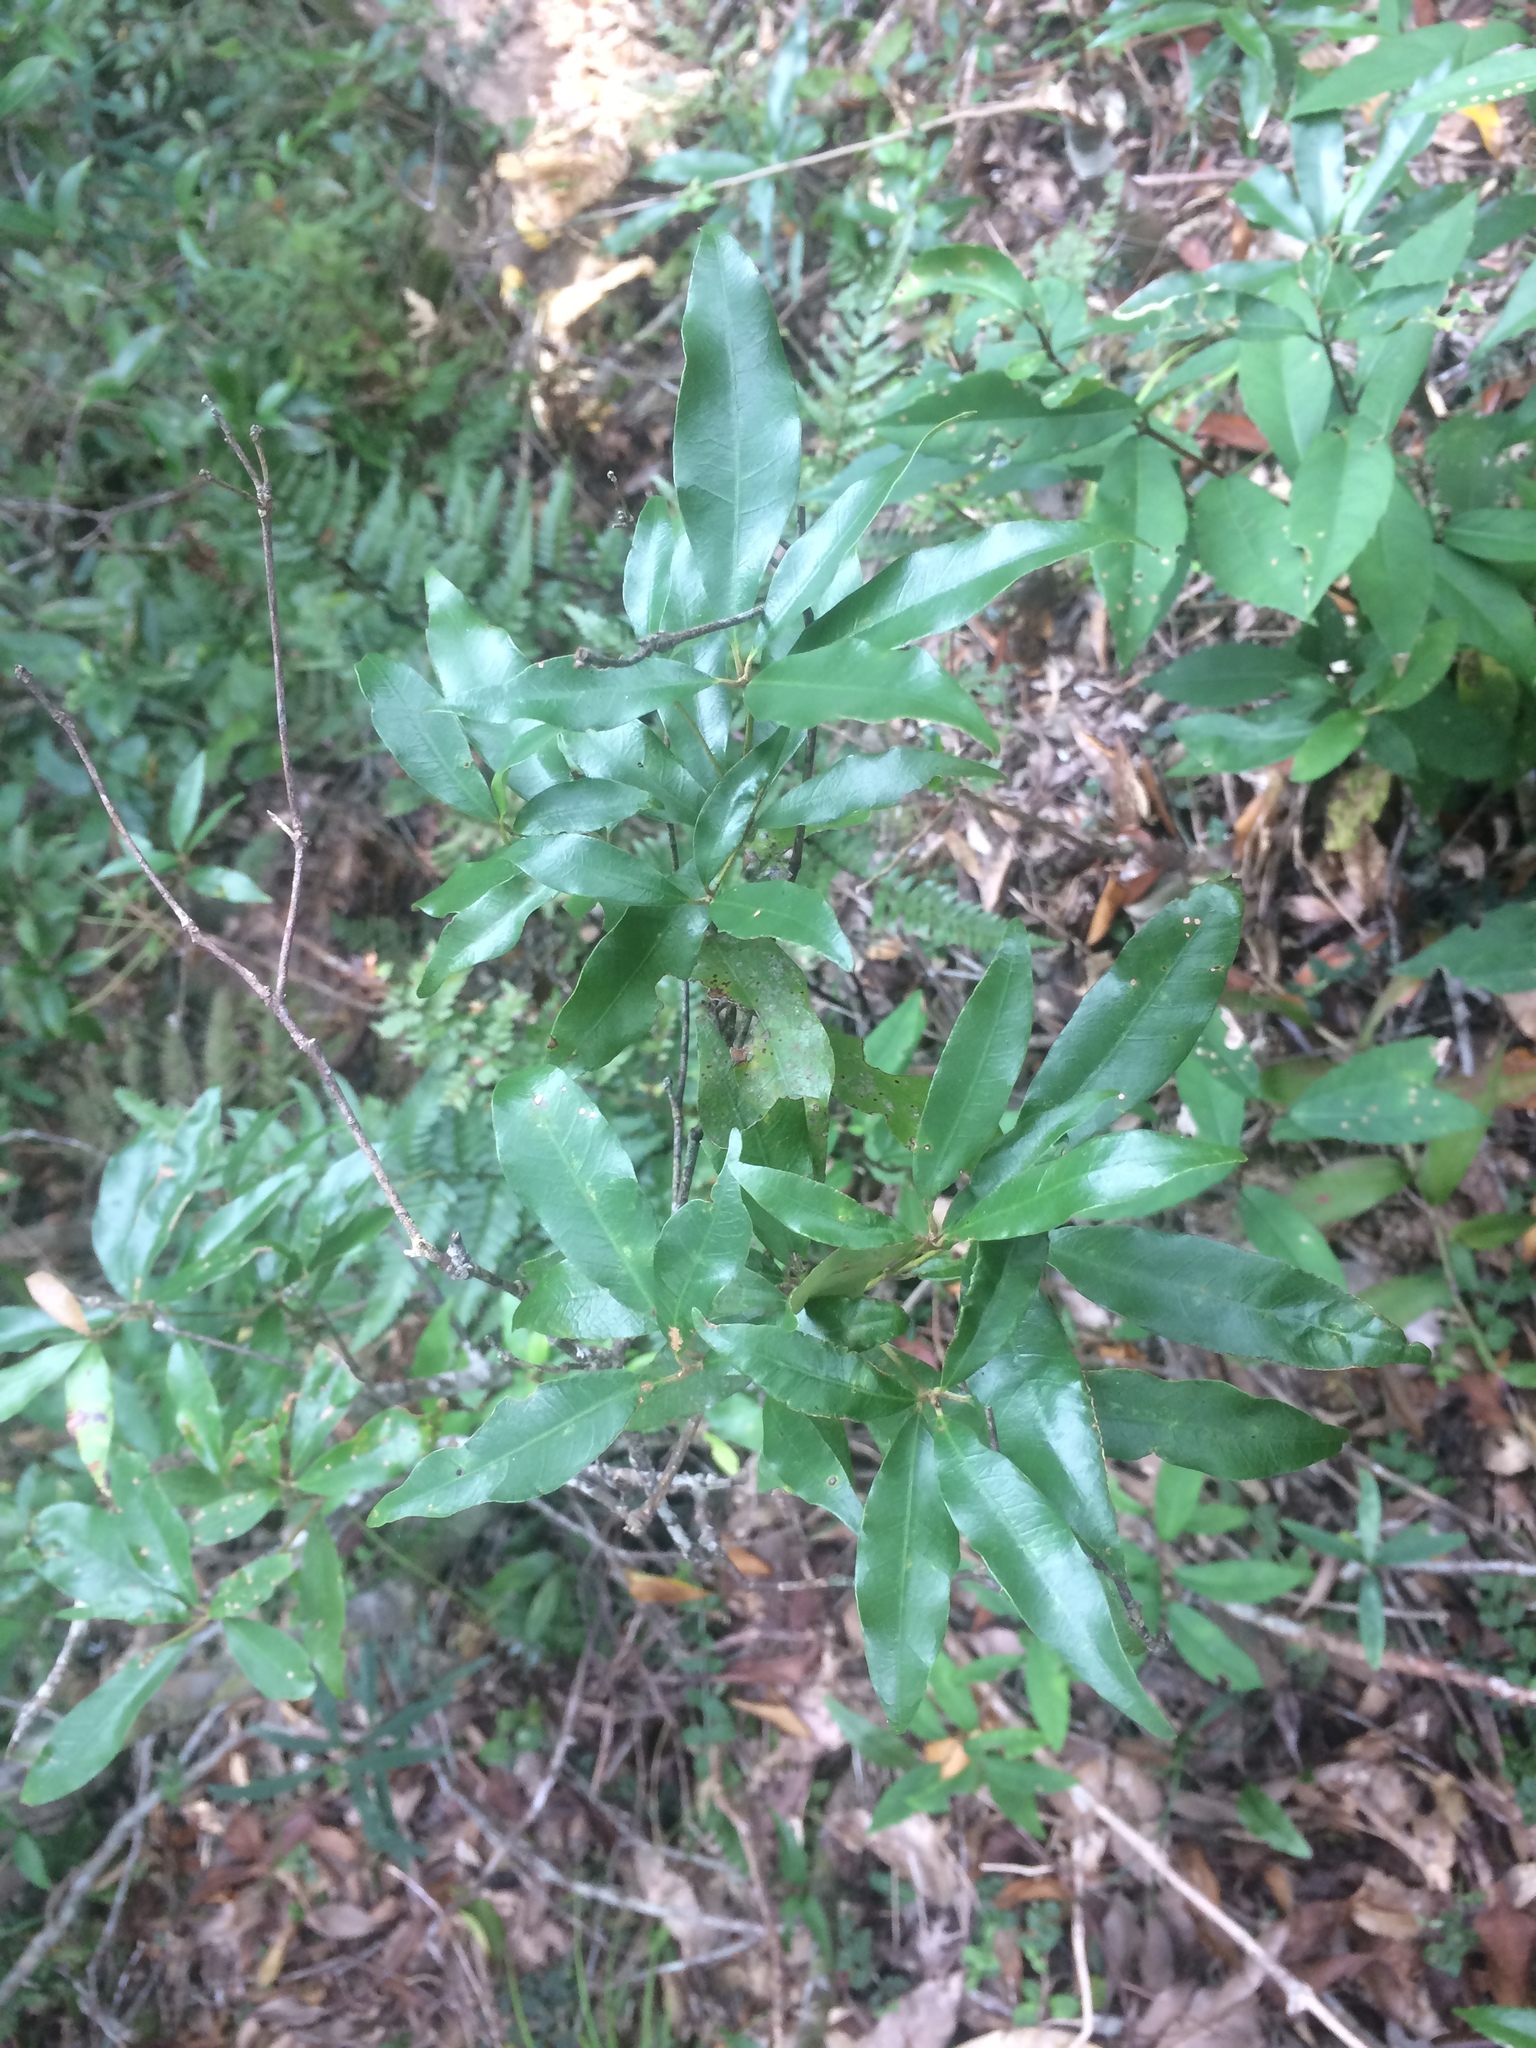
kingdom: Plantae
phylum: Tracheophyta
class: Magnoliopsida
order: Fagales
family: Fagaceae
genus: Quercus
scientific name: Quercus hypophaea
